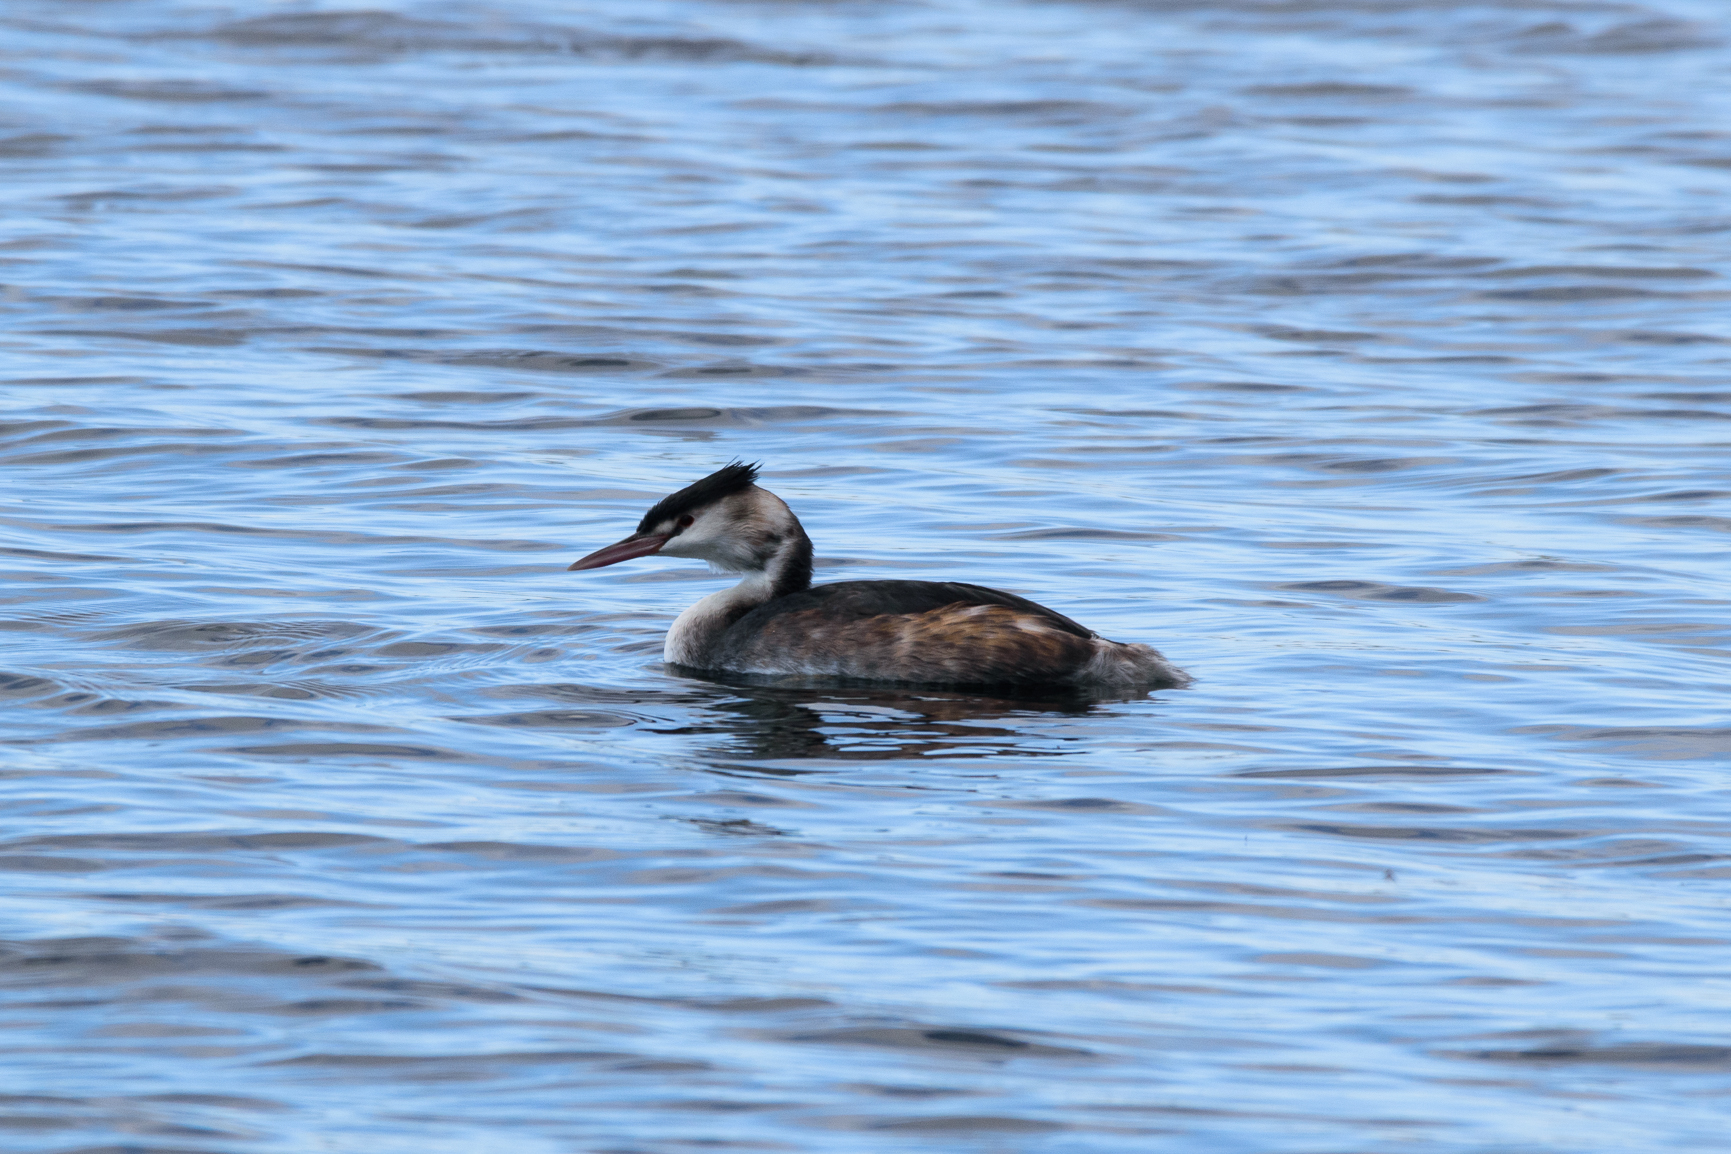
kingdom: Animalia
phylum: Chordata
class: Aves
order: Podicipediformes
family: Podicipedidae
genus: Podiceps
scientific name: Podiceps cristatus
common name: Great crested grebe
